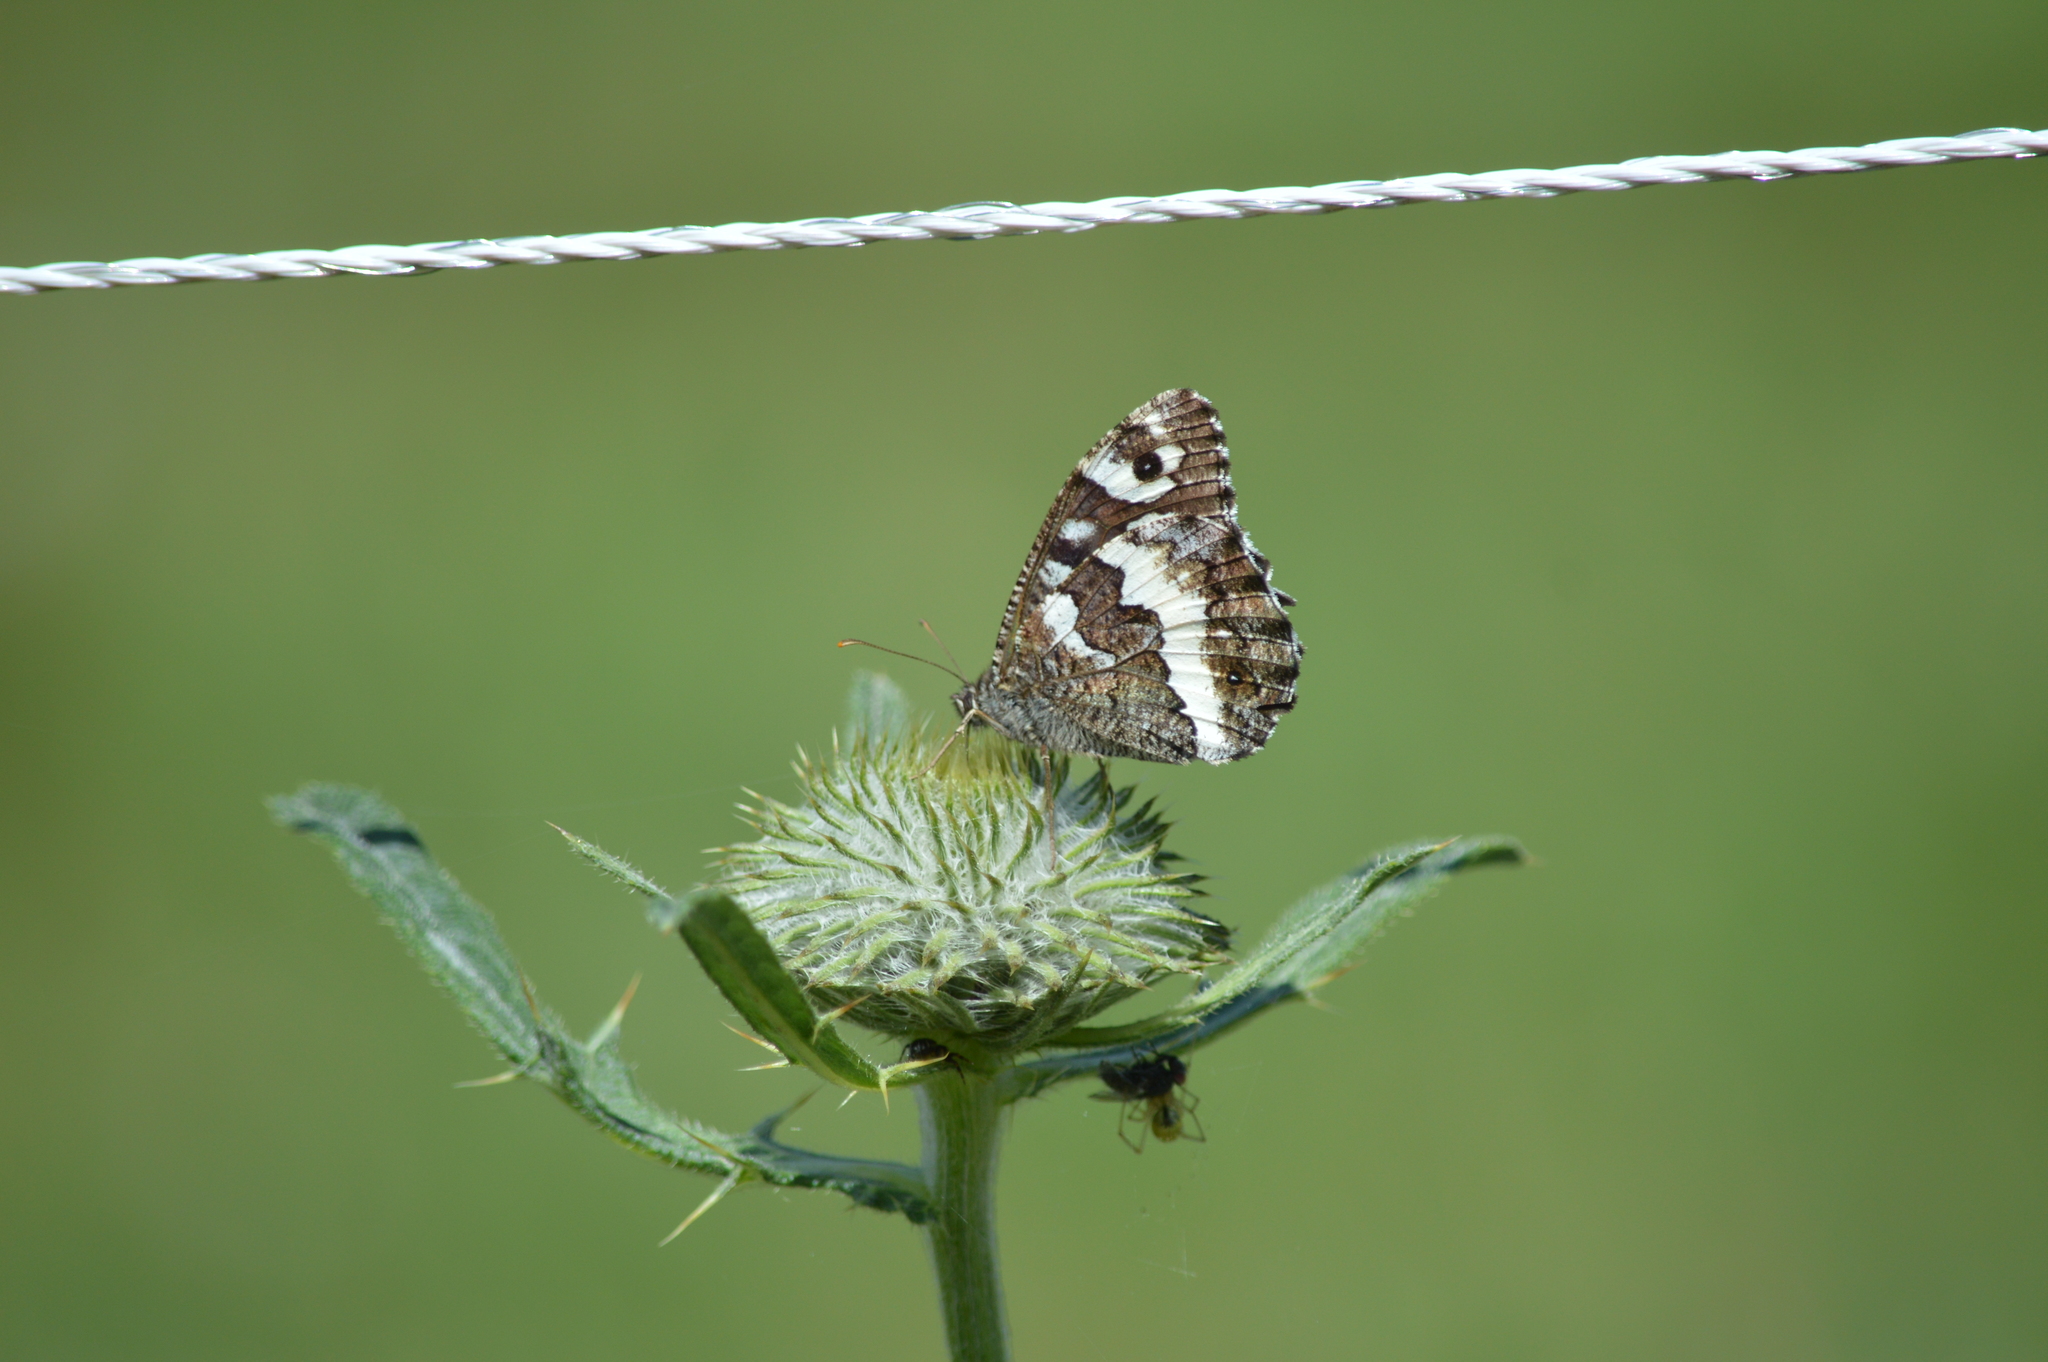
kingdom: Animalia
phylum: Arthropoda
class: Insecta
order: Lepidoptera
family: Lycaenidae
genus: Loweia
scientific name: Loweia tityrus
